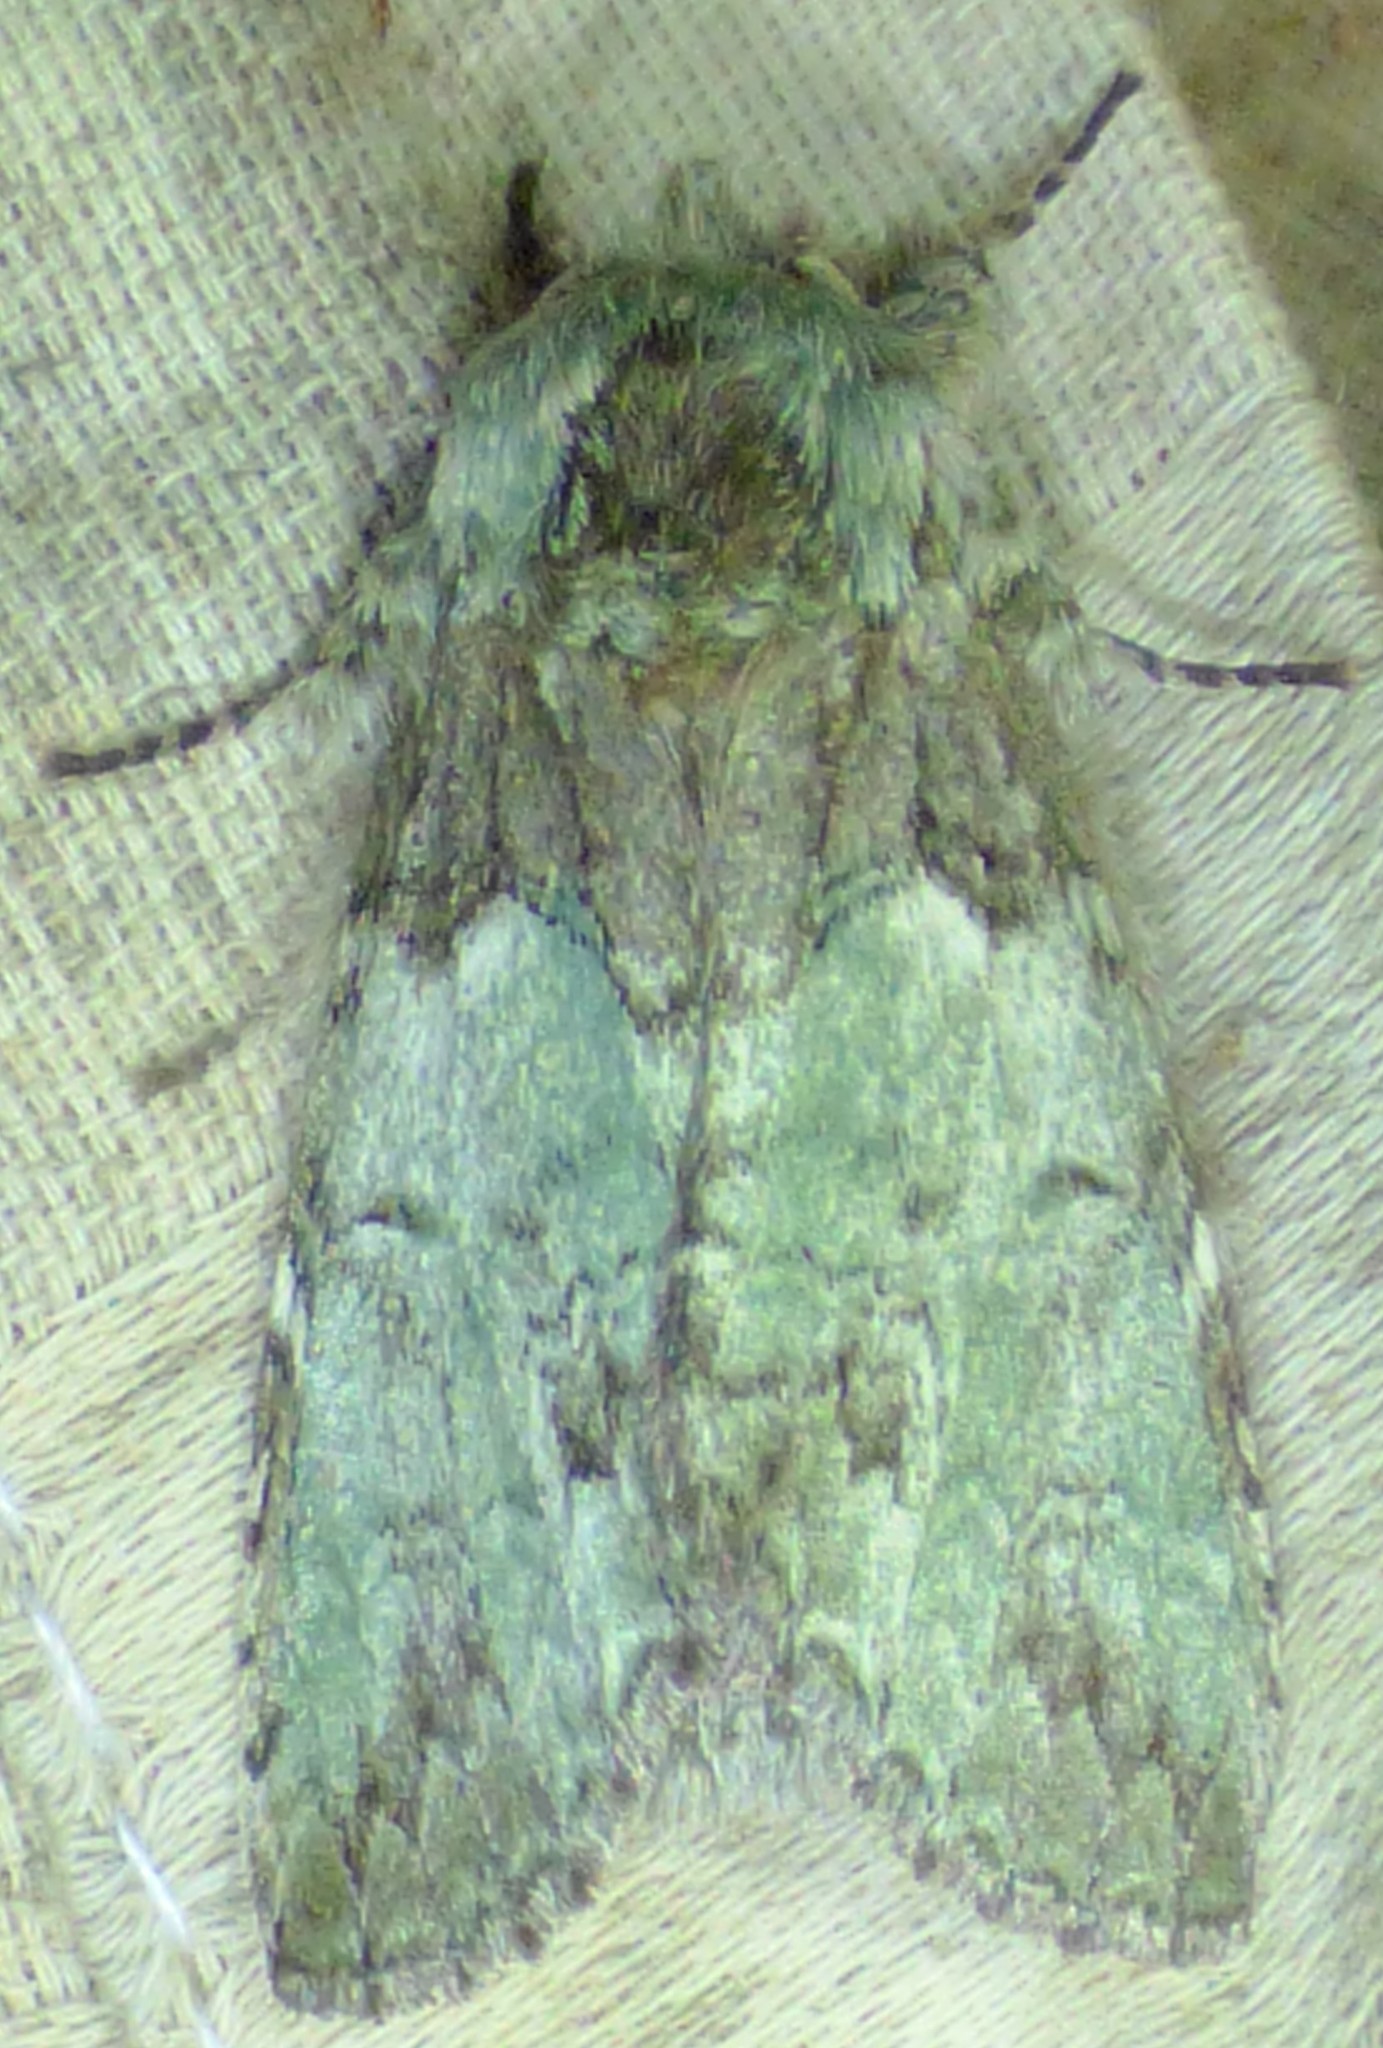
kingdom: Animalia
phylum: Arthropoda
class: Insecta
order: Lepidoptera
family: Notodontidae
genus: Macrurocampa
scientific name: Macrurocampa marthesia
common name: Mottled prominent
